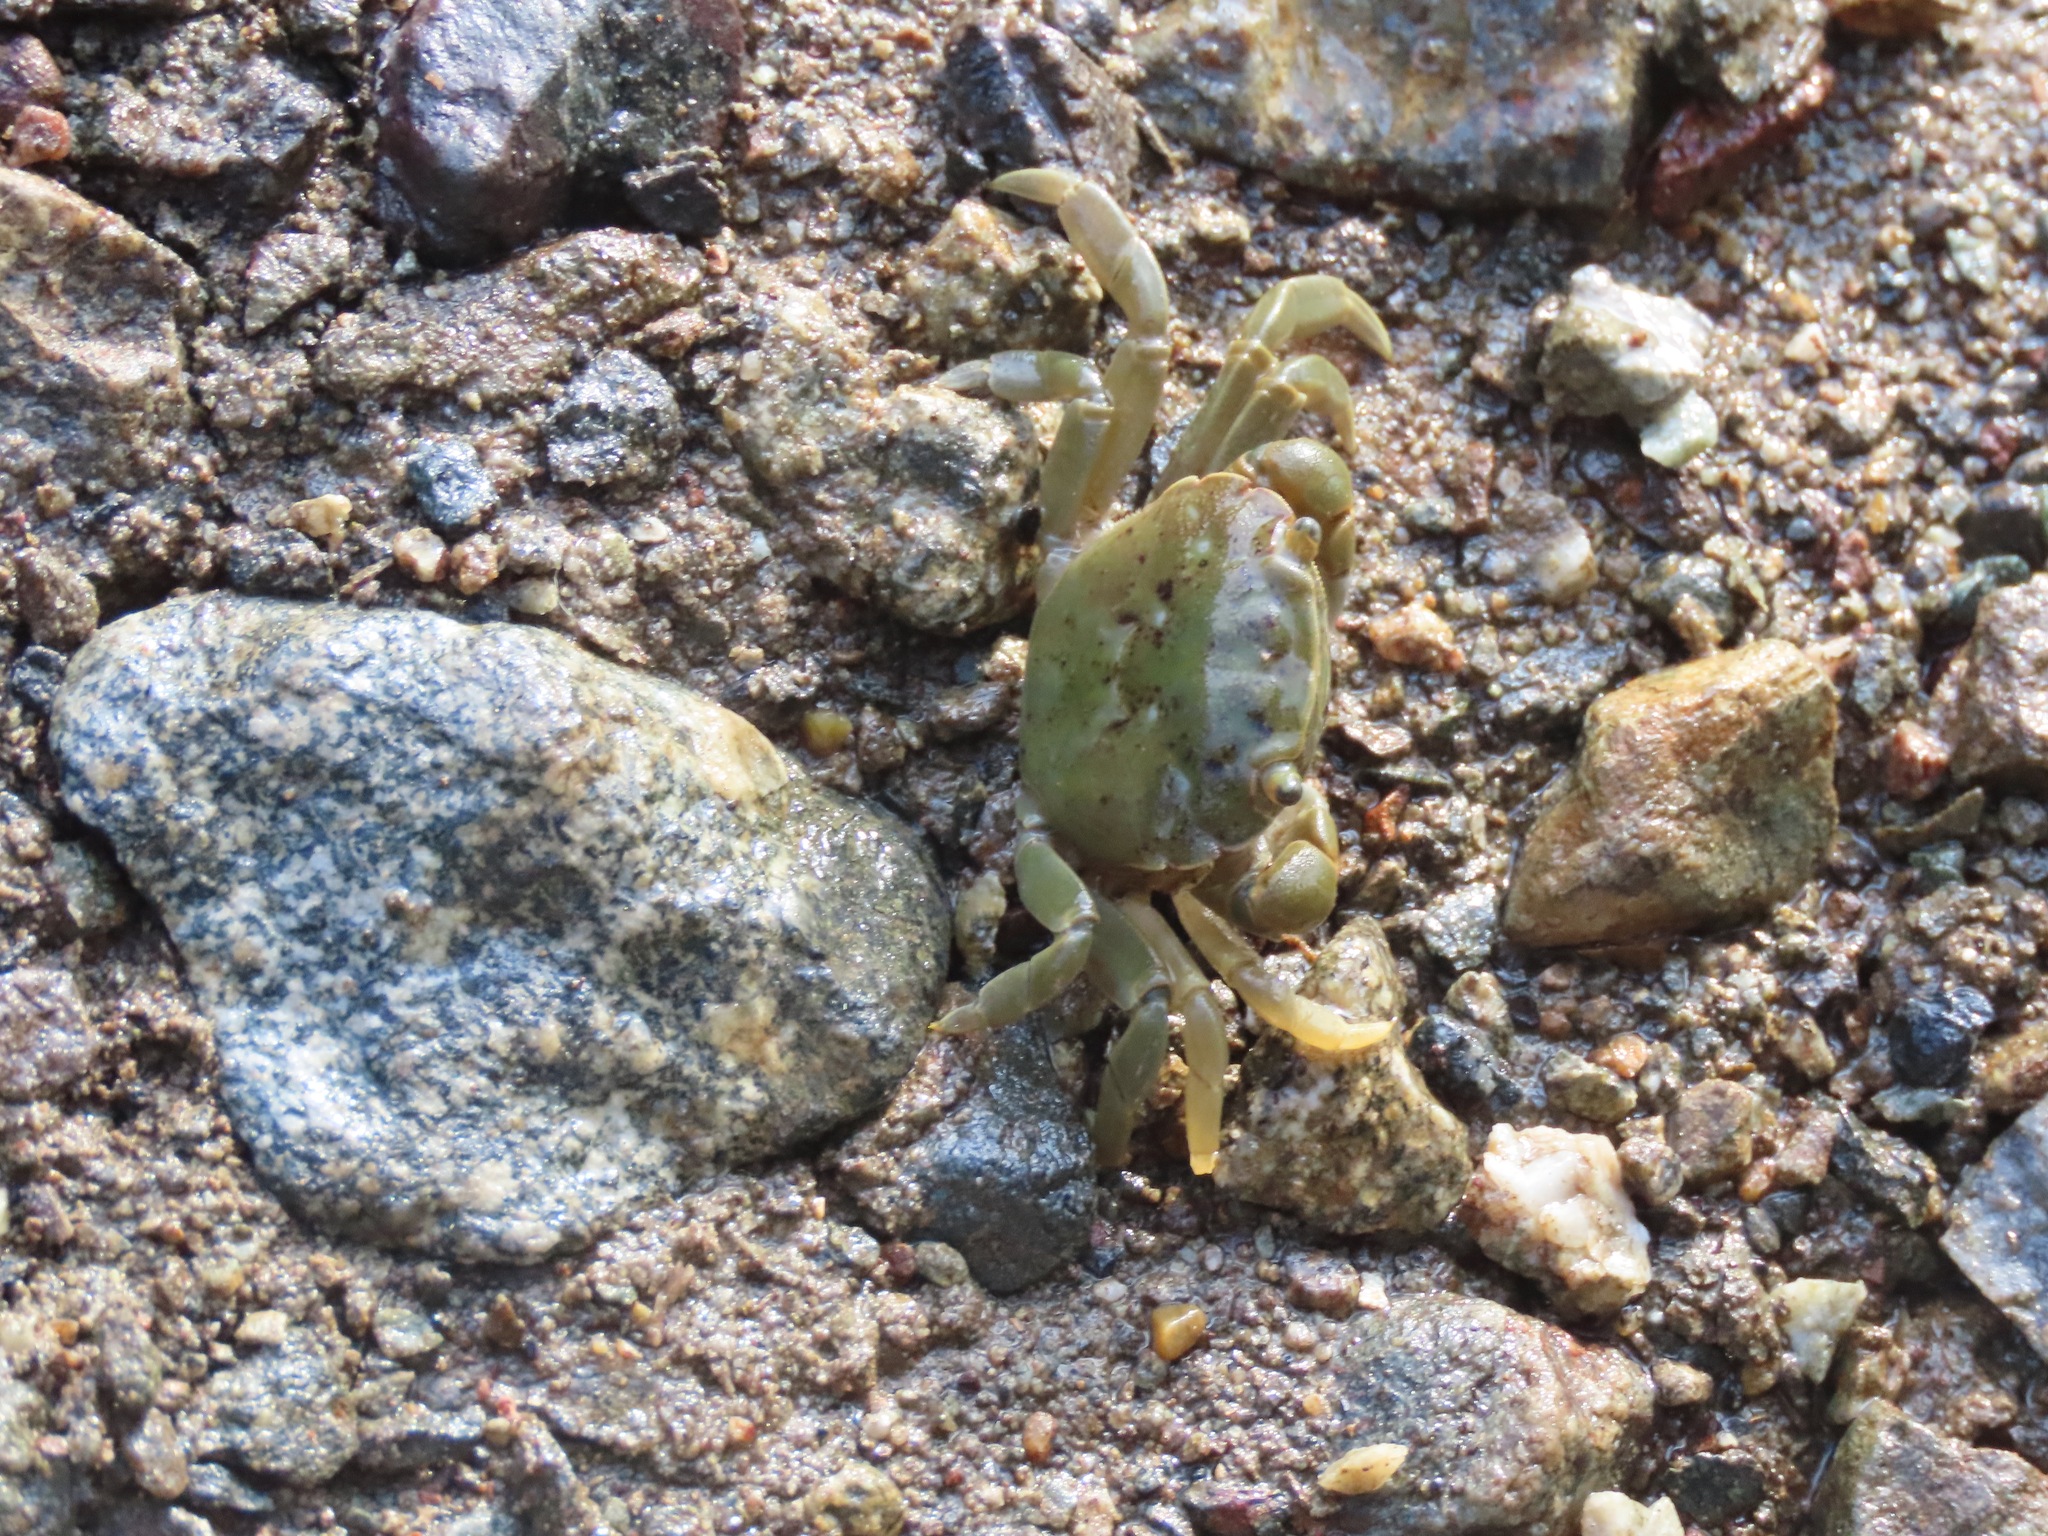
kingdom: Animalia
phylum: Arthropoda
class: Malacostraca
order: Decapoda
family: Varunidae
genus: Hemigrapsus
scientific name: Hemigrapsus nudus
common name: Purple shore crab
